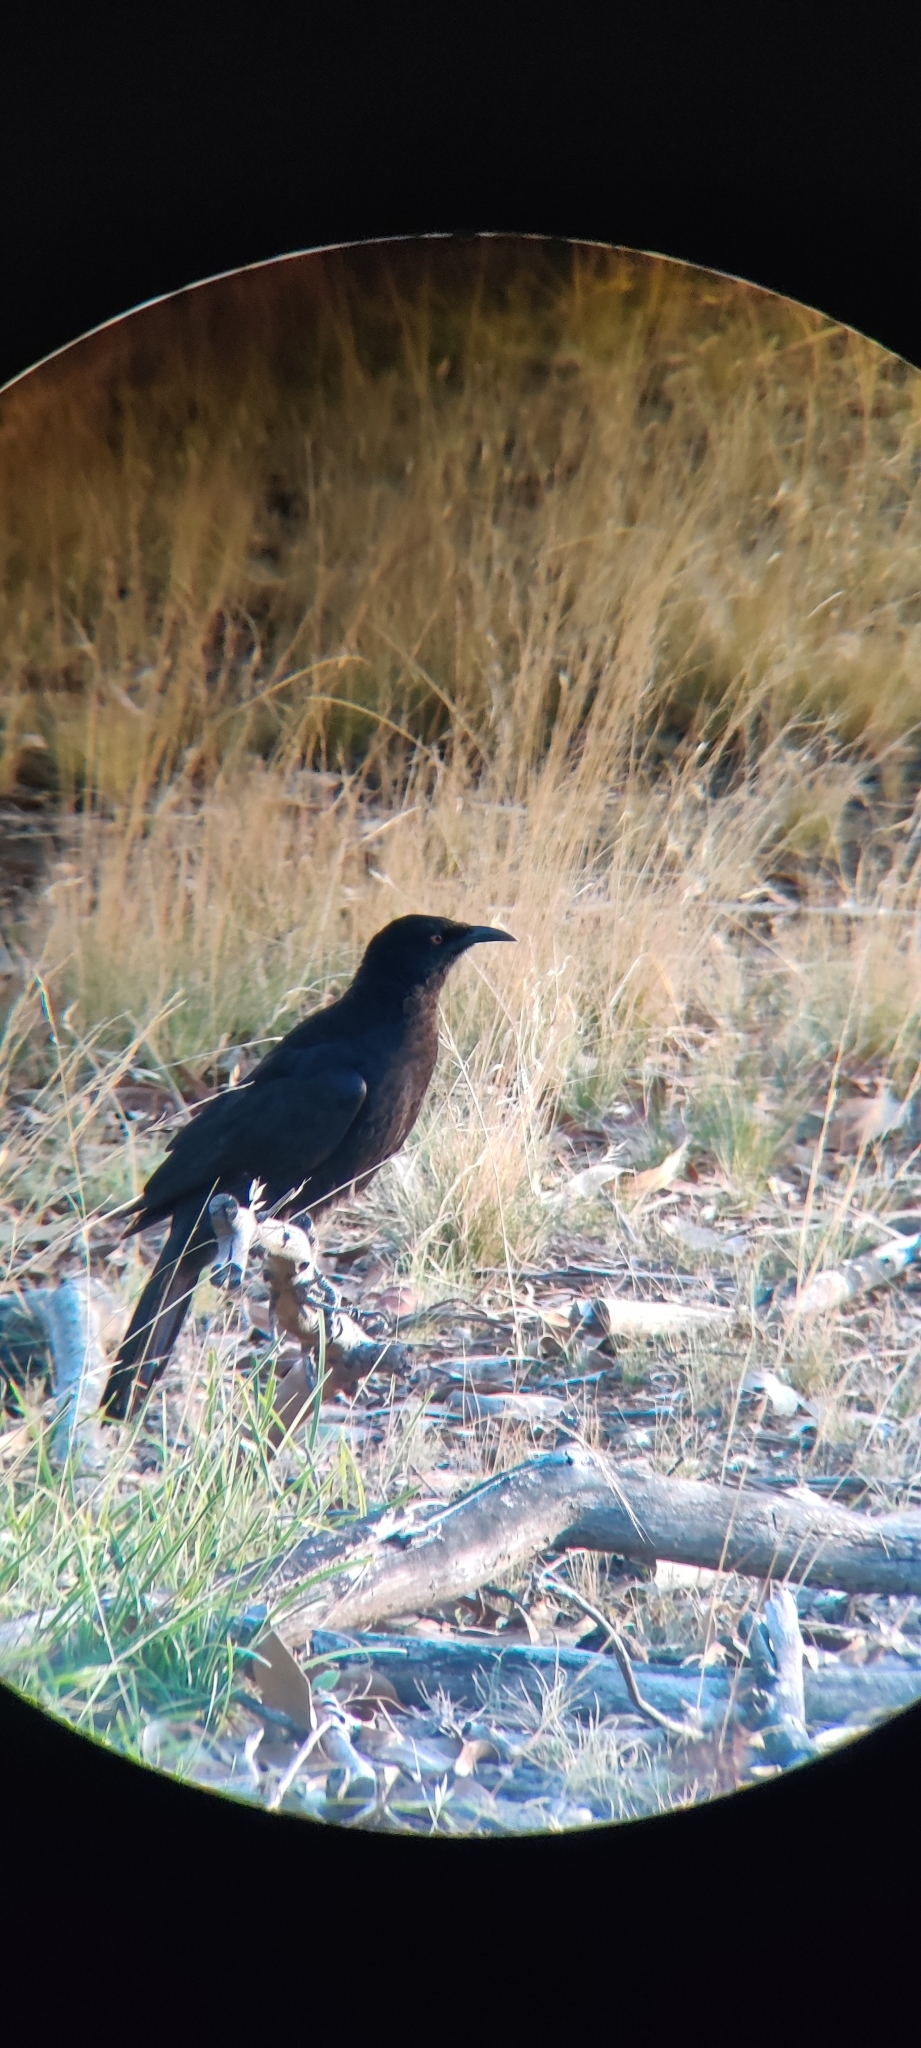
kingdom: Animalia
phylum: Chordata
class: Aves
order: Passeriformes
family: Corcoracidae
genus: Corcorax
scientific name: Corcorax melanoramphos
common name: White-winged chough
